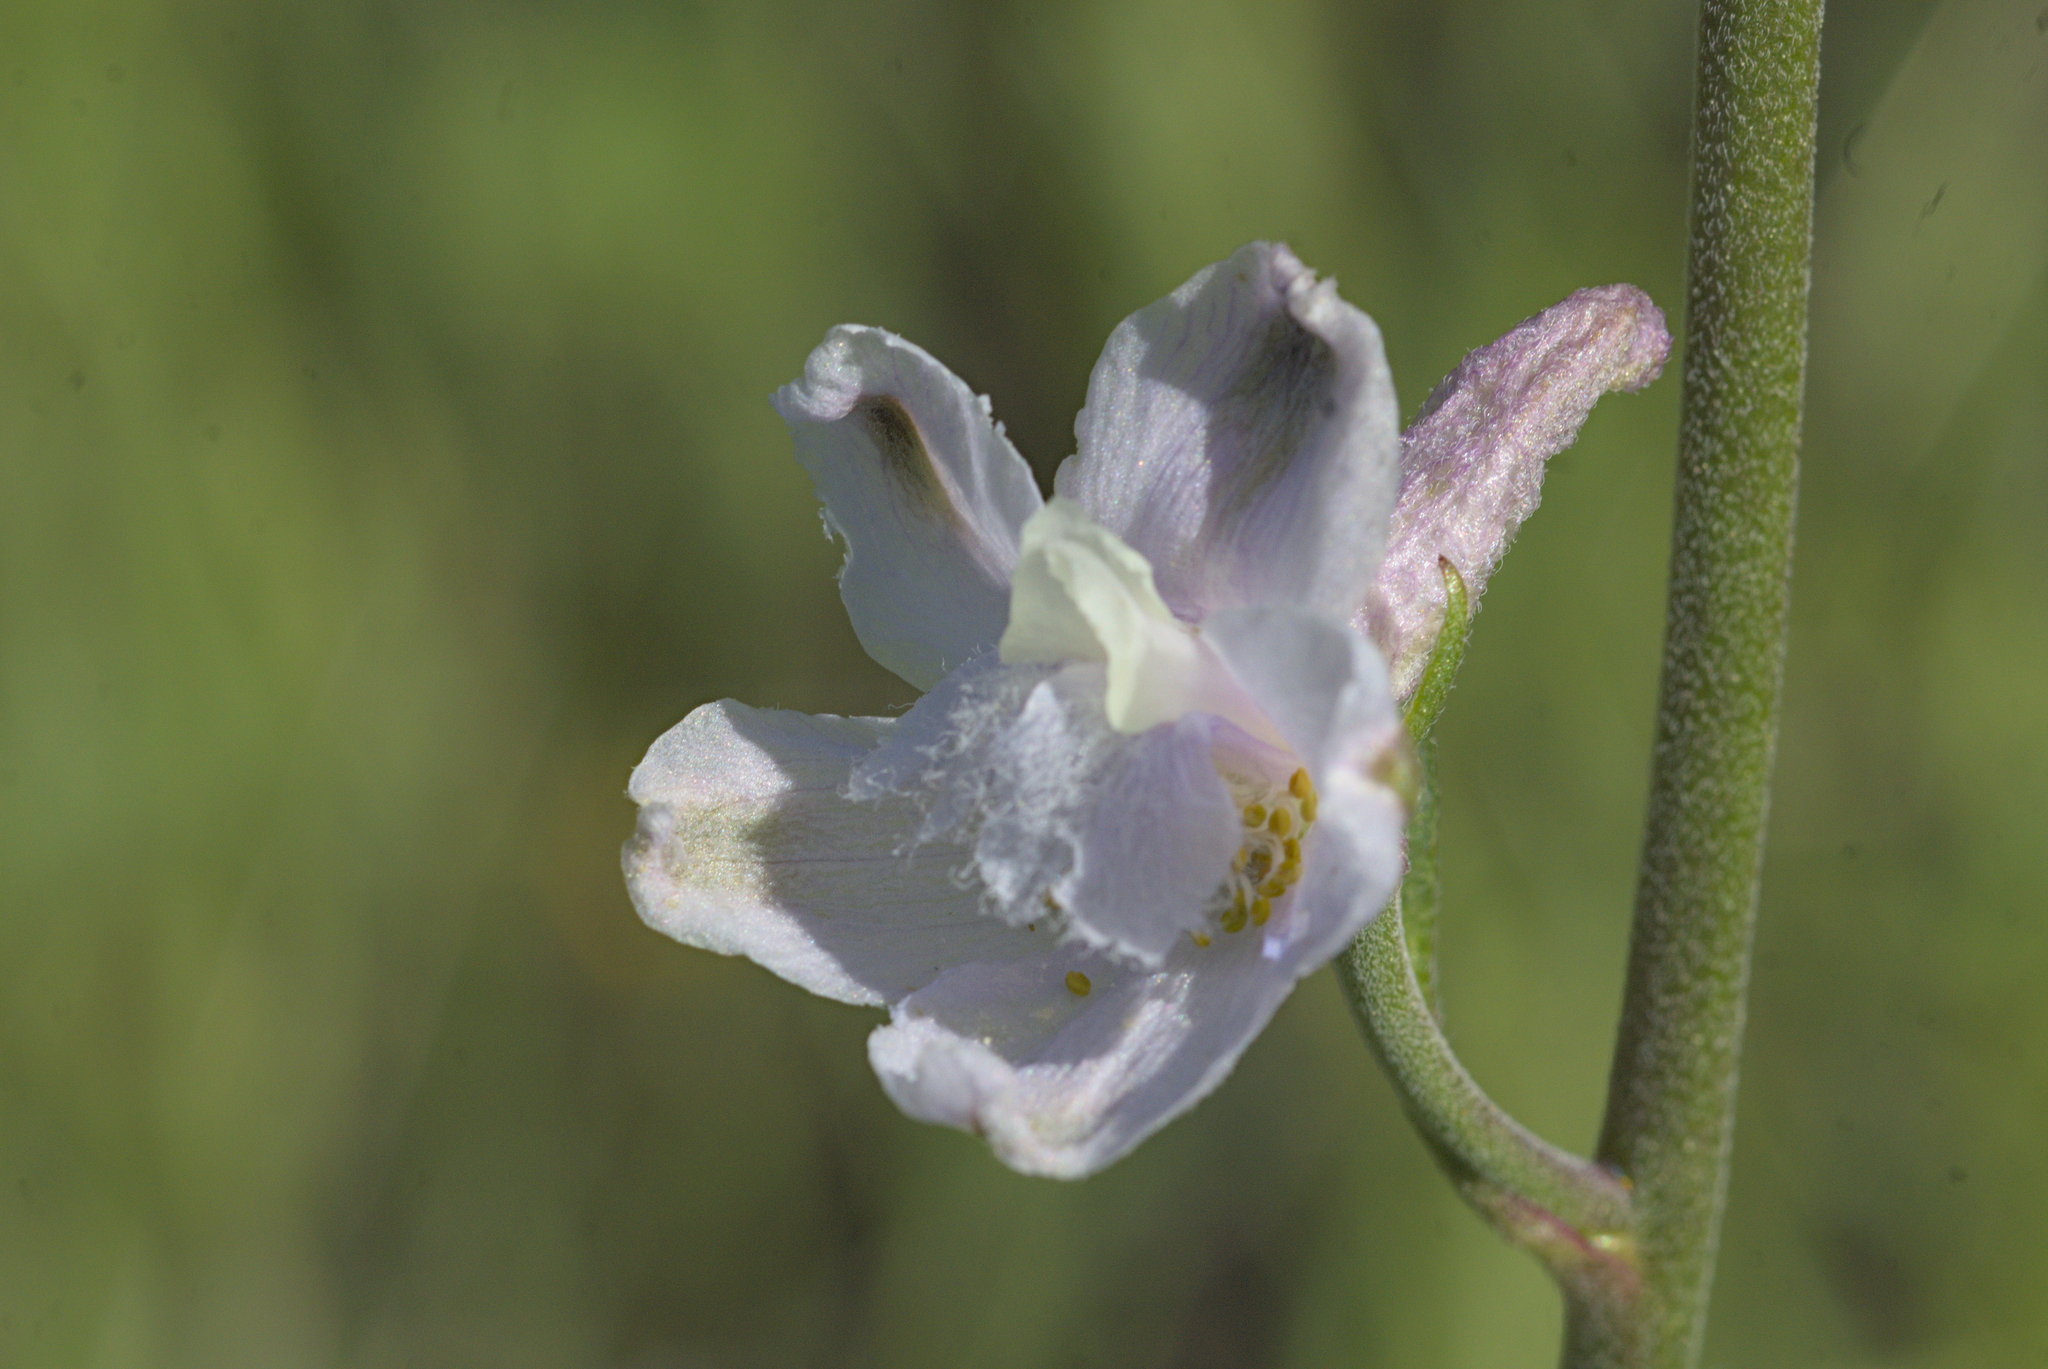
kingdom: Plantae
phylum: Tracheophyta
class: Magnoliopsida
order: Ranunculales
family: Ranunculaceae
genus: Delphinium
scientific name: Delphinium hesperium
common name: Western larkspur
